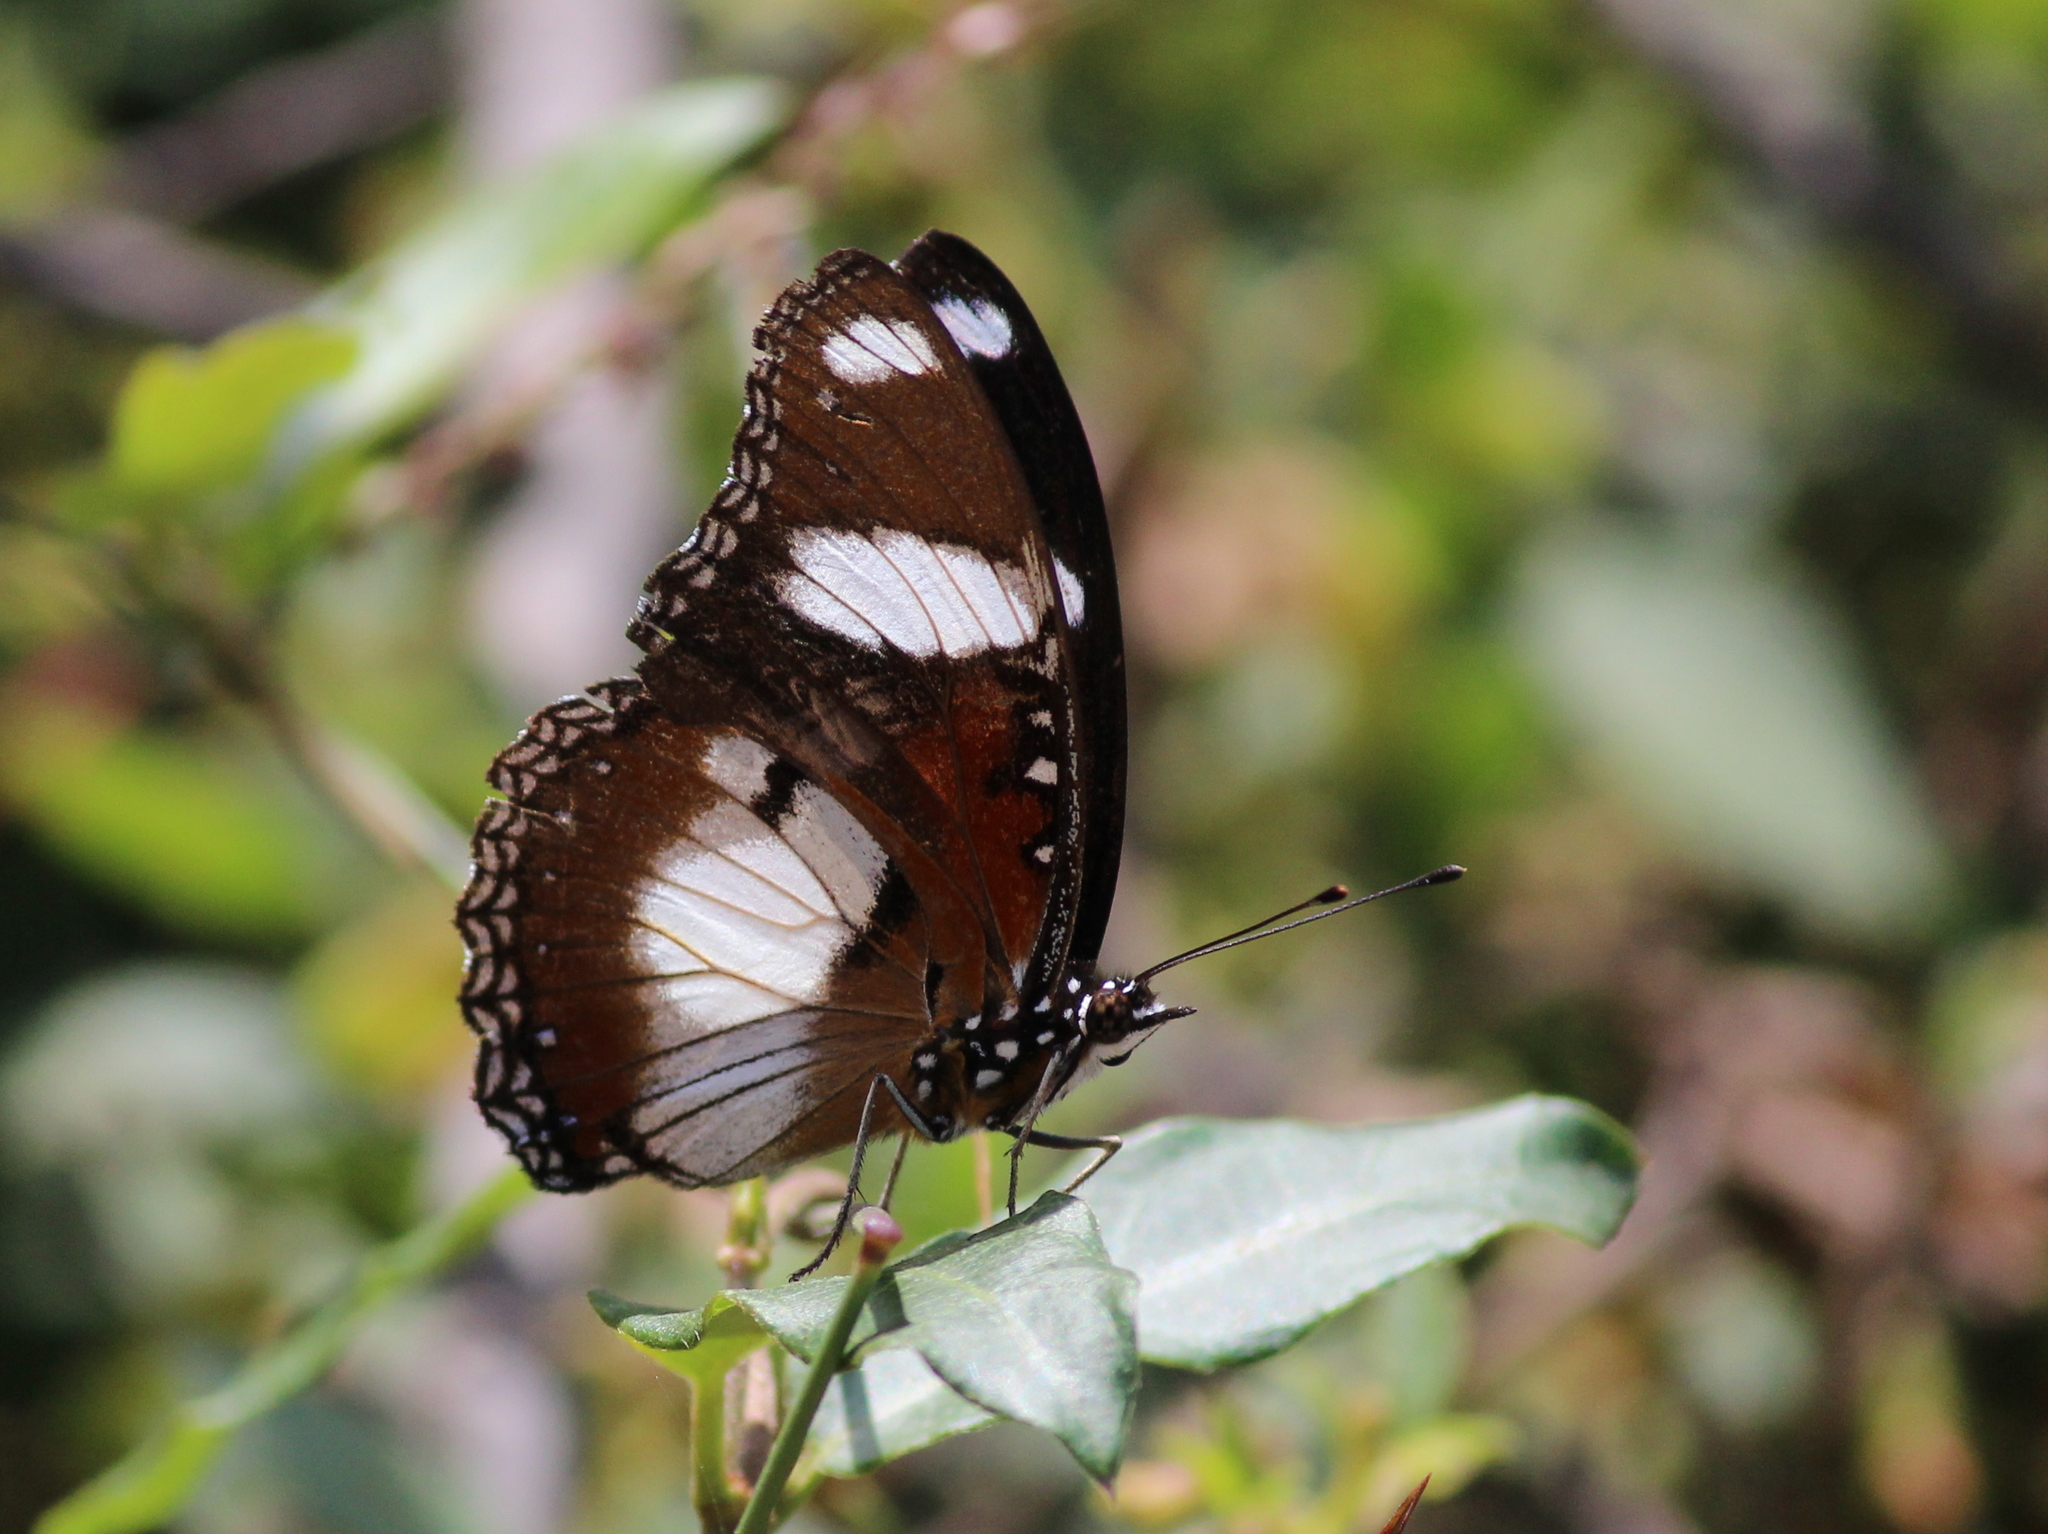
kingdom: Animalia
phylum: Arthropoda
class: Insecta
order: Lepidoptera
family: Nymphalidae
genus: Hypolimnas
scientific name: Hypolimnas misippus
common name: False plain tiger
